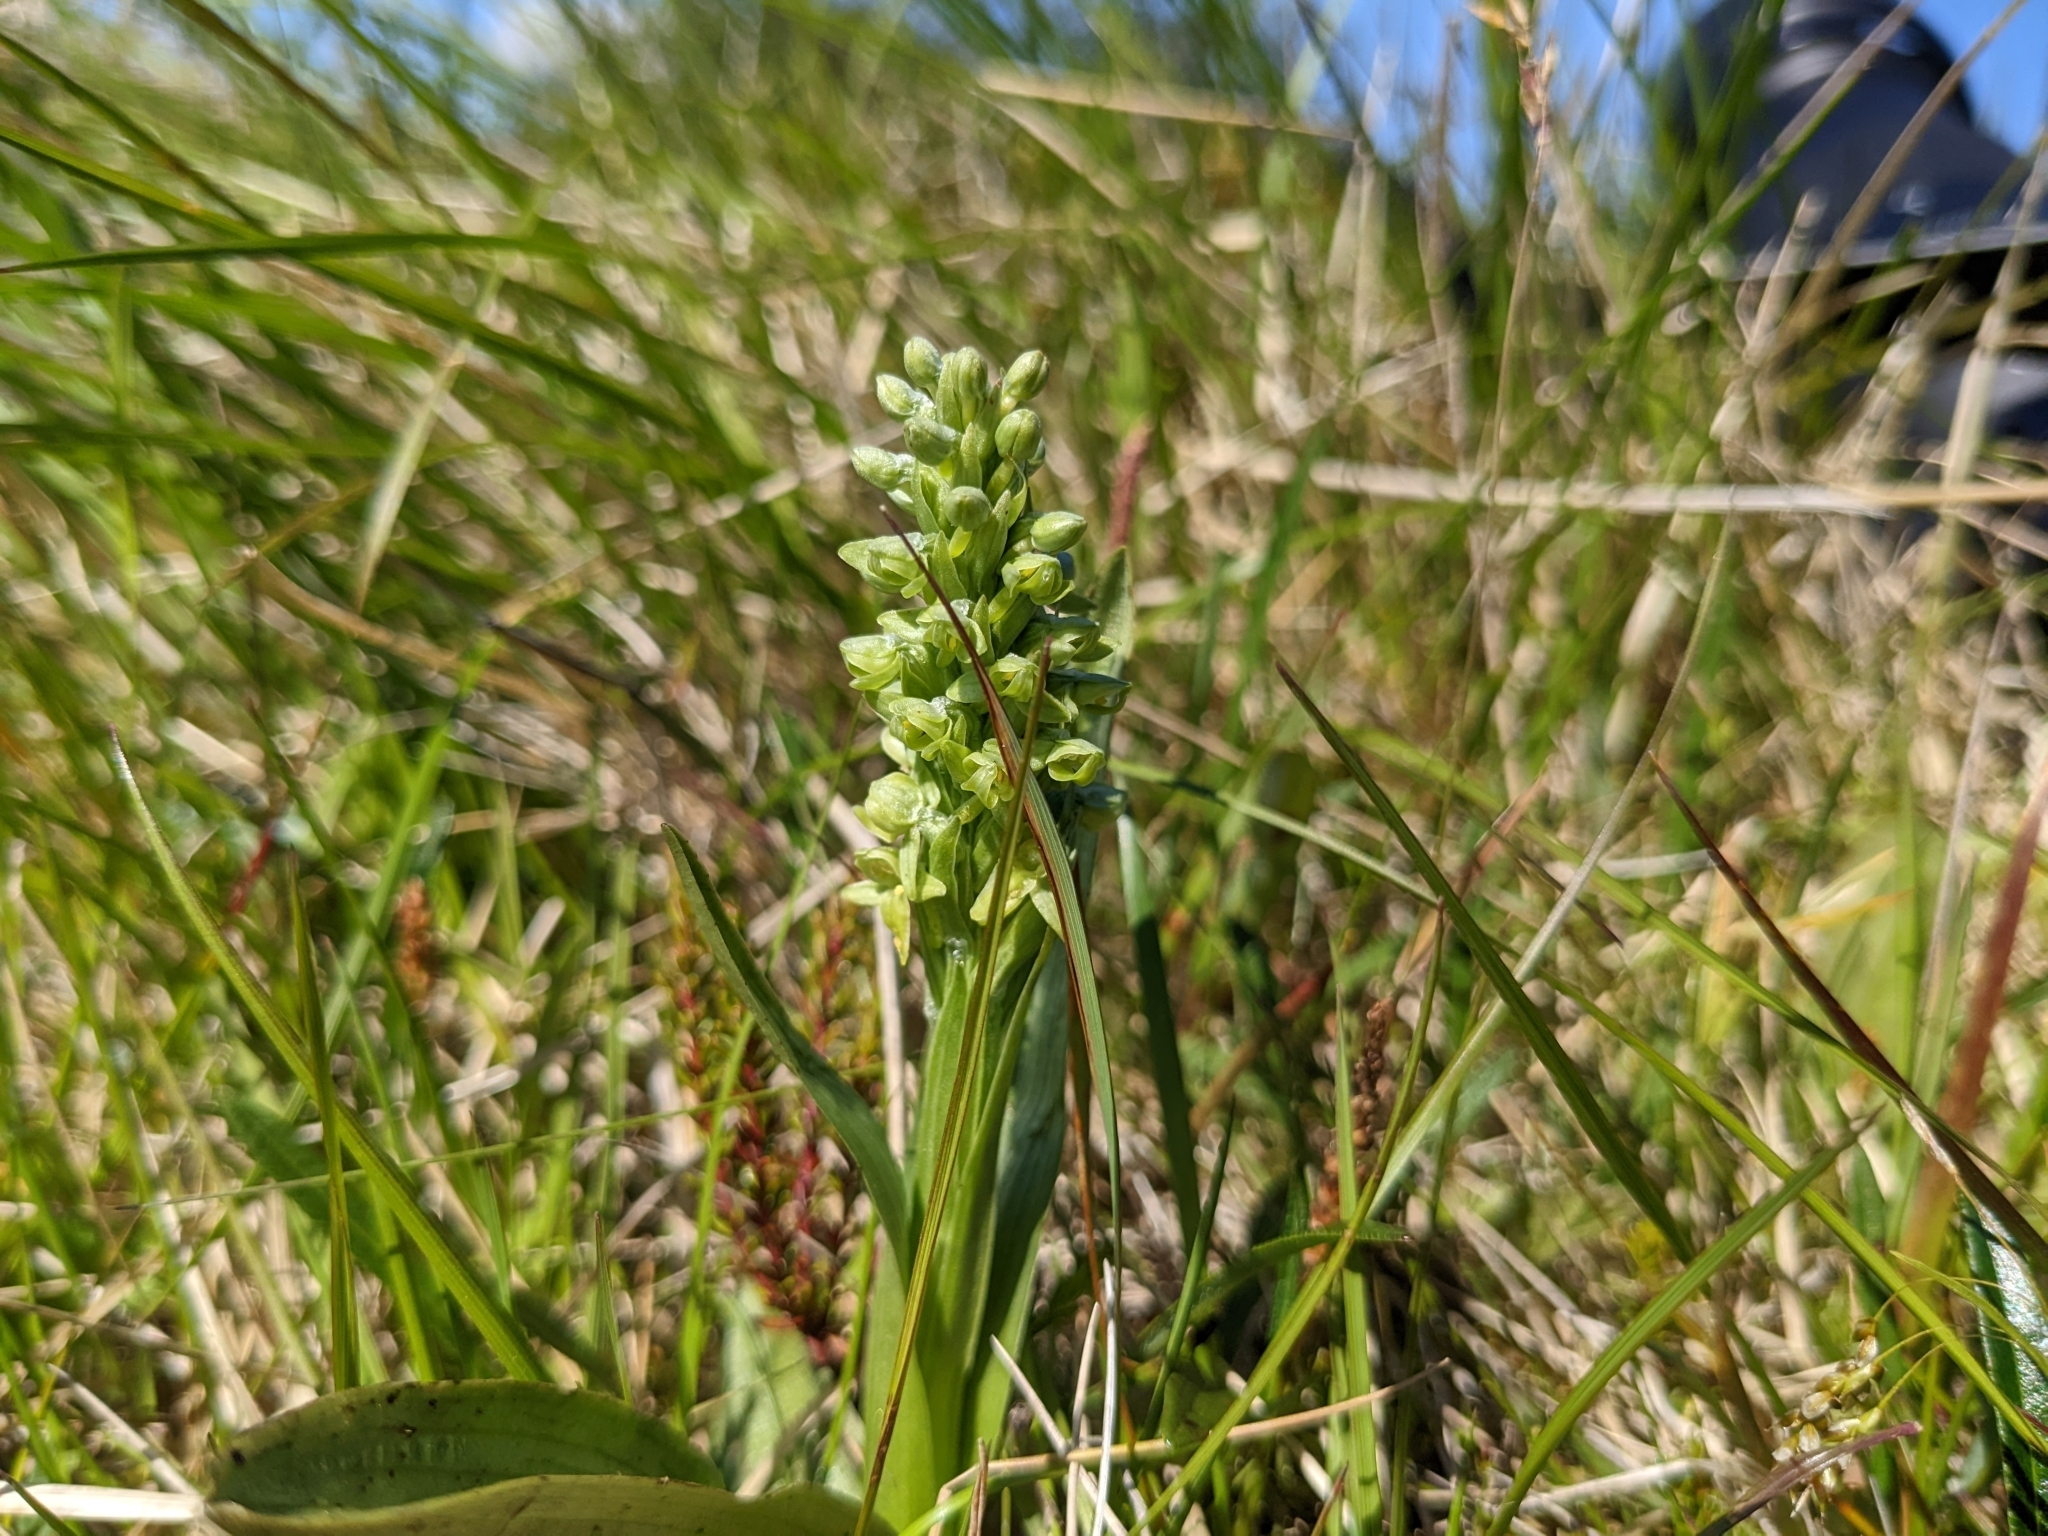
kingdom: Plantae
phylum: Tracheophyta
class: Liliopsida
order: Asparagales
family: Orchidaceae
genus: Platanthera
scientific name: Platanthera hyperborea
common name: Northern green orchid
